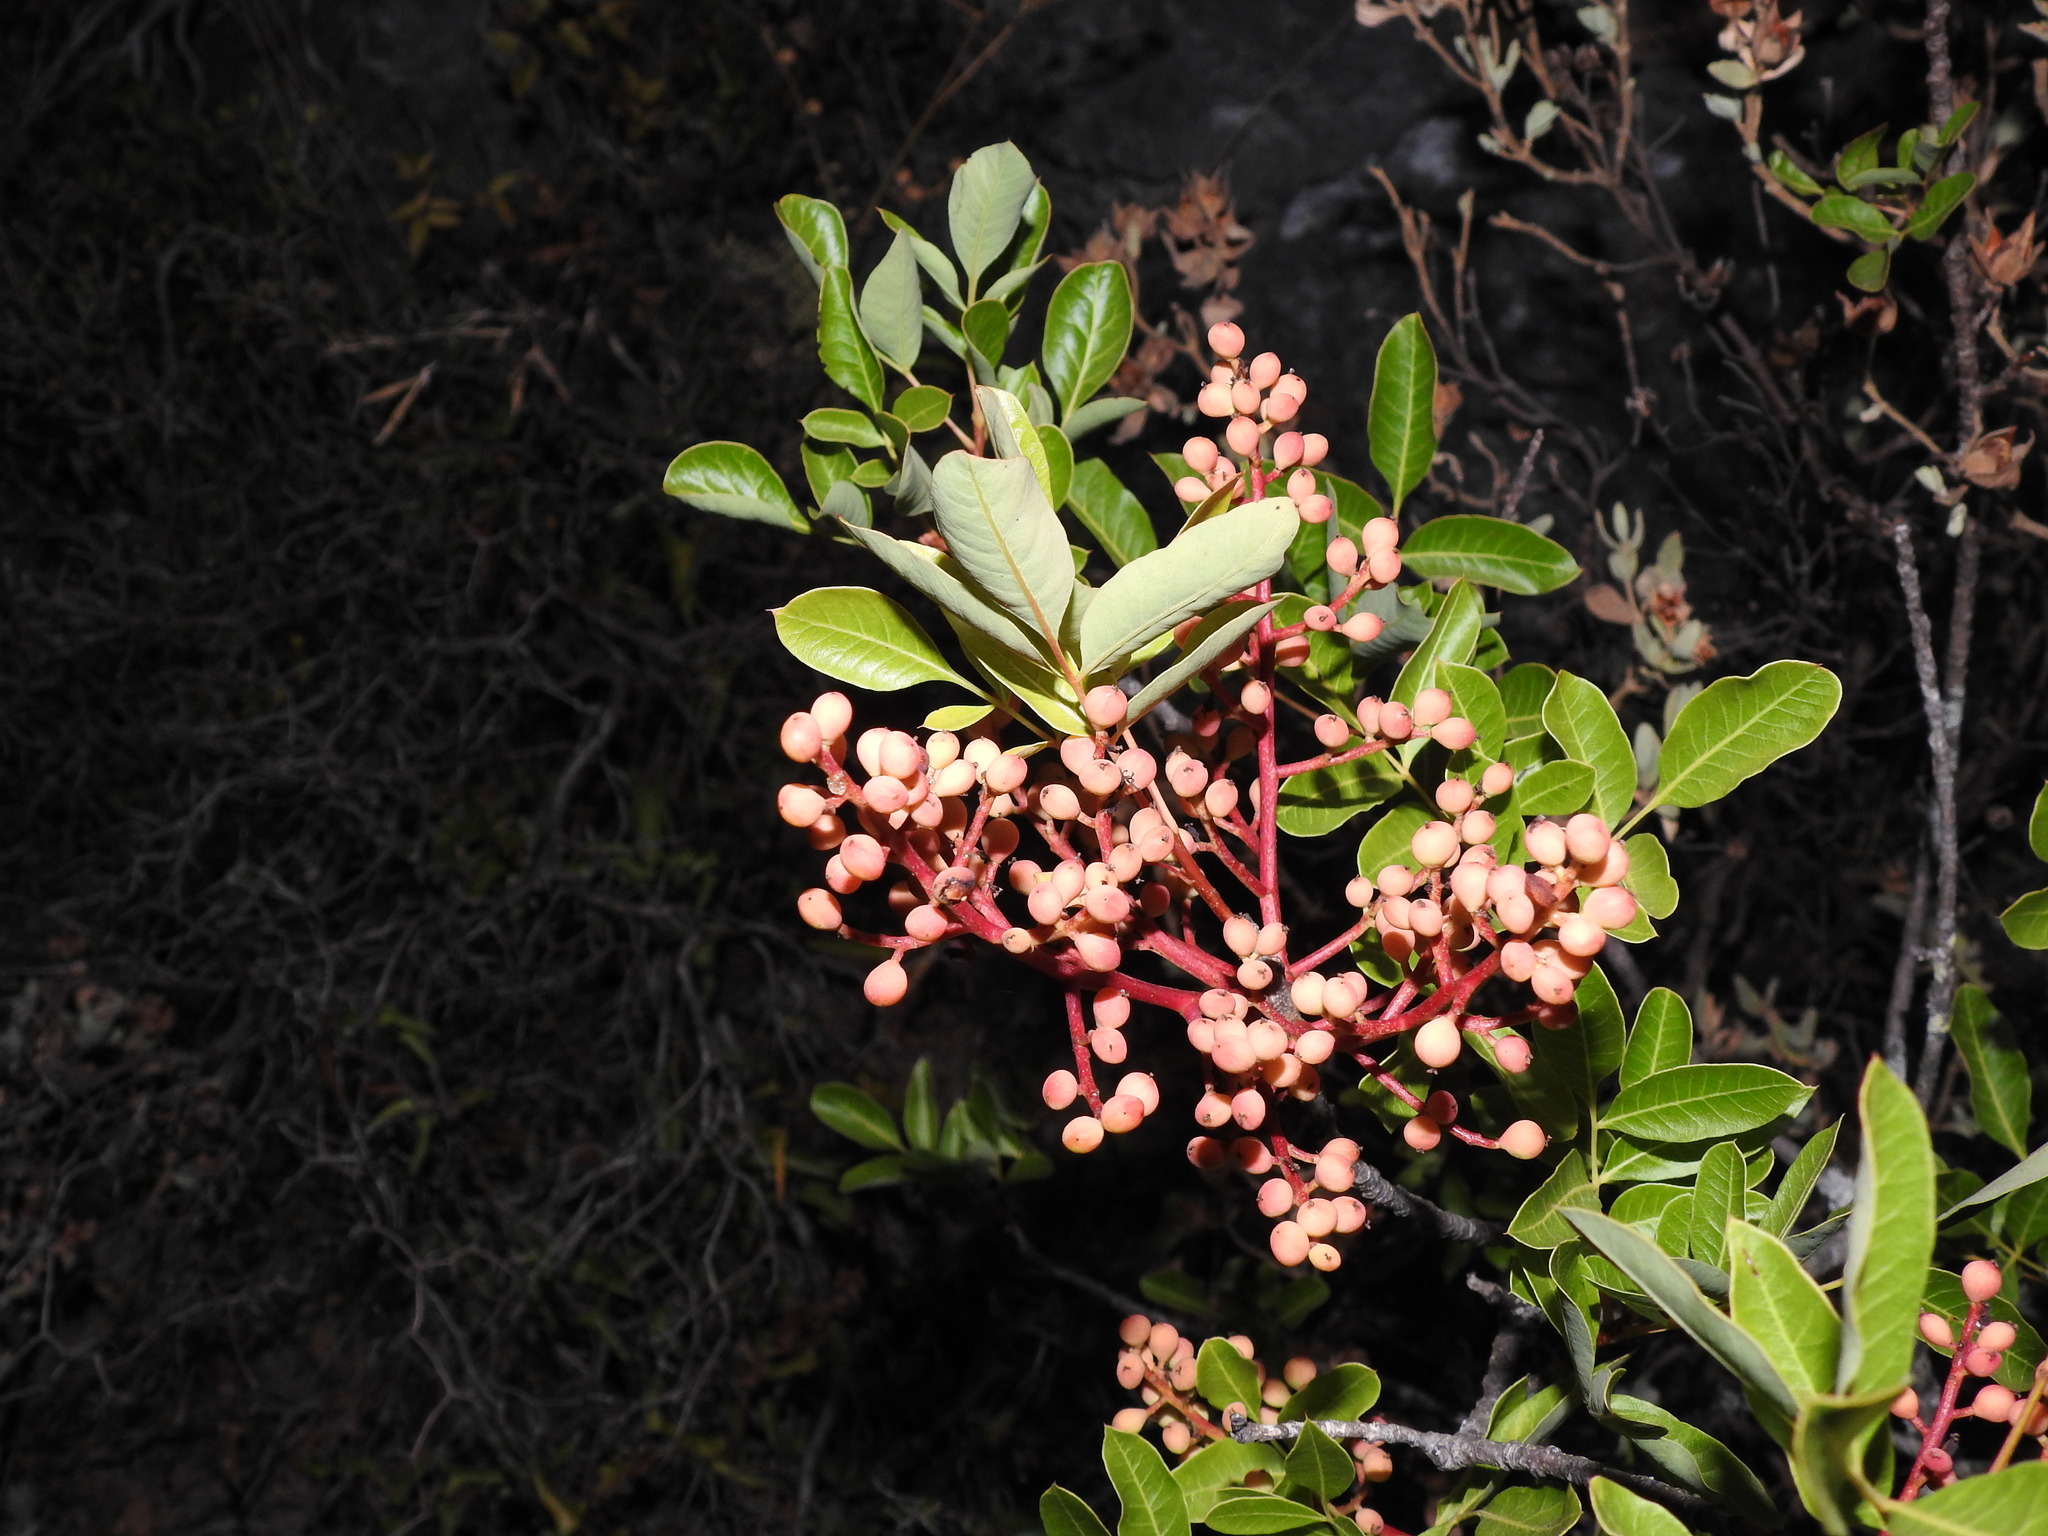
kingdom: Plantae
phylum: Tracheophyta
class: Magnoliopsida
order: Sapindales
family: Anacardiaceae
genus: Pistacia
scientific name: Pistacia terebinthus
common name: Terebinth
